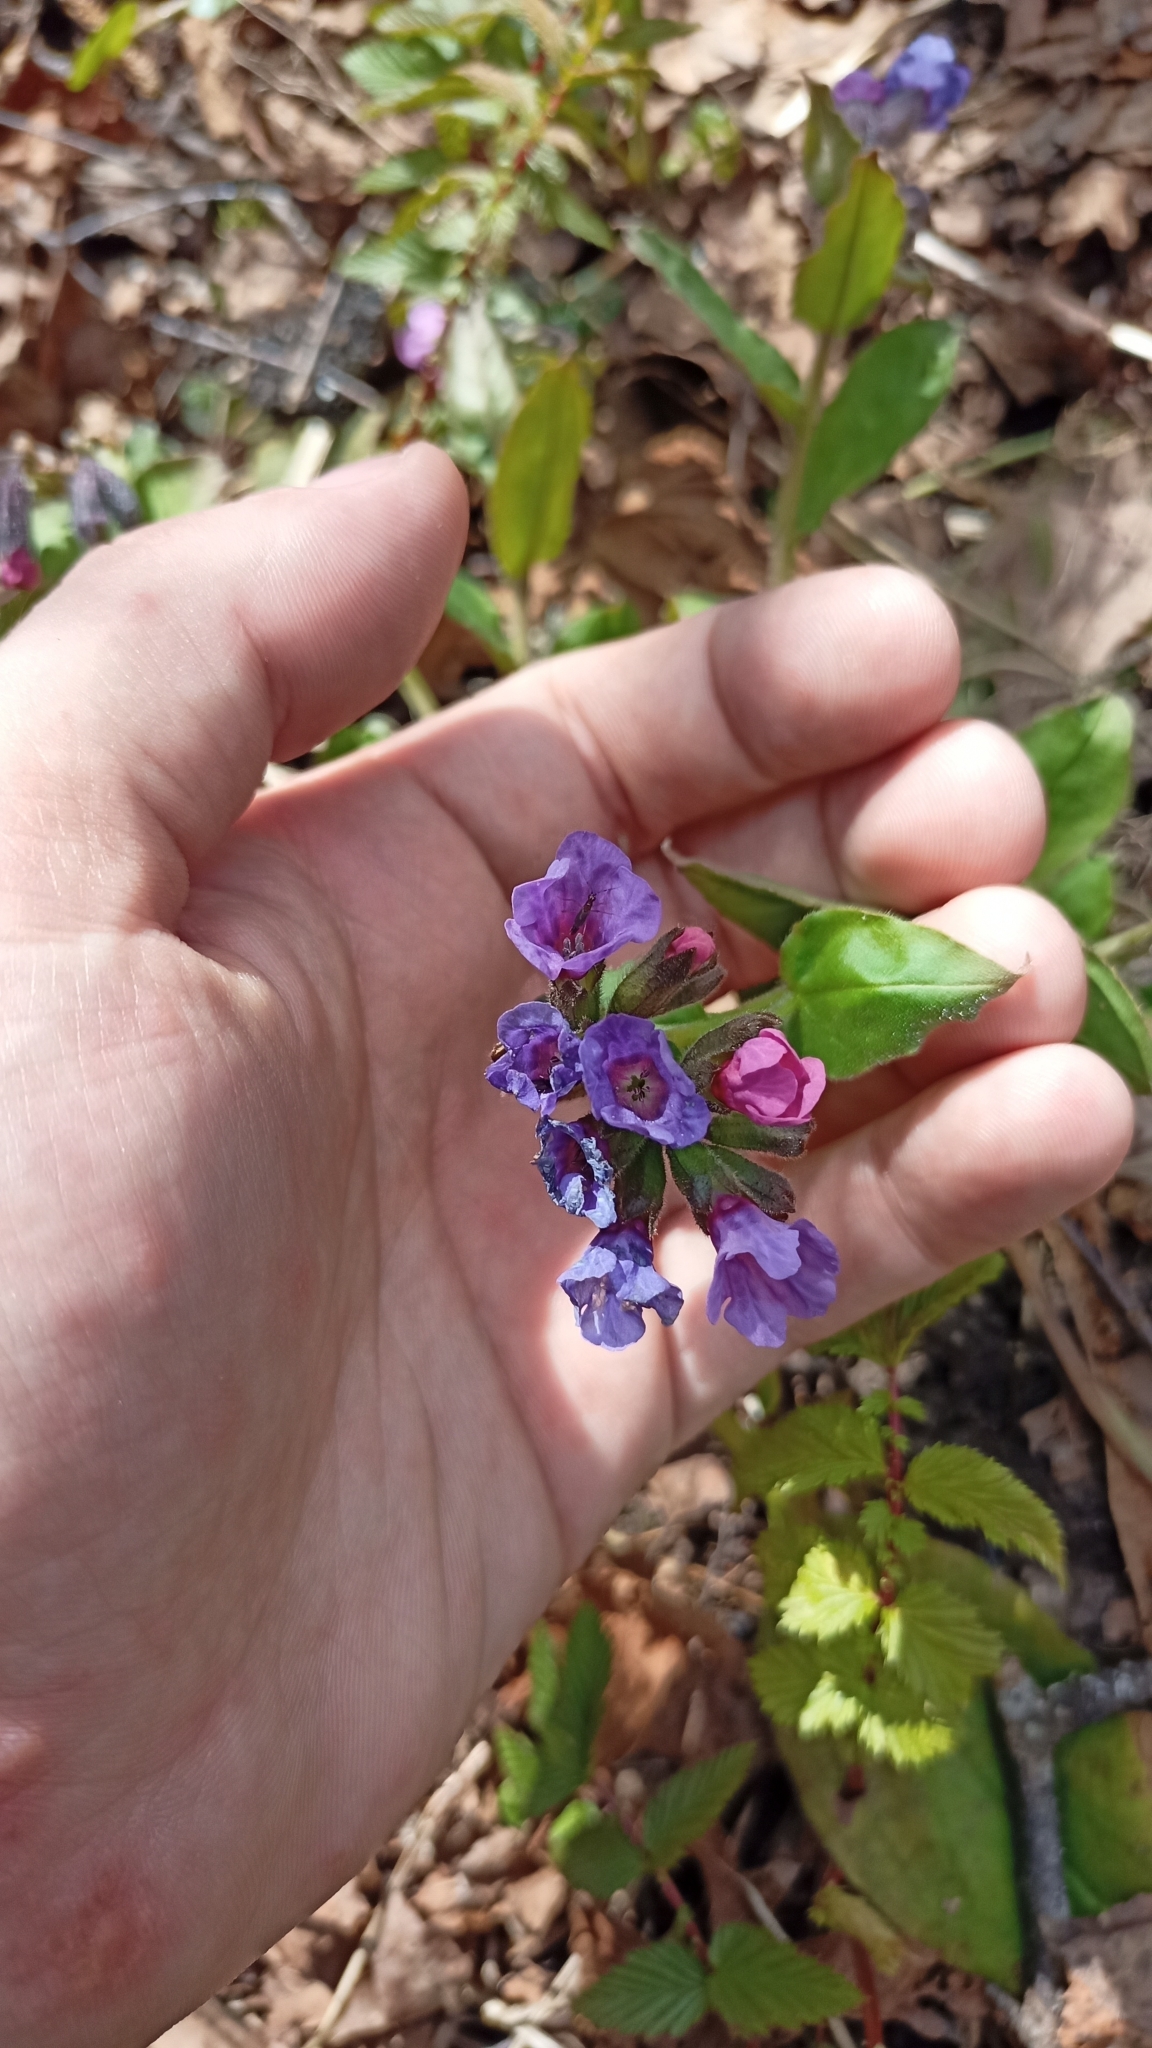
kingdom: Plantae
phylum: Tracheophyta
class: Magnoliopsida
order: Boraginales
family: Boraginaceae
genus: Pulmonaria
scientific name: Pulmonaria obscura
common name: Suffolk lungwort
